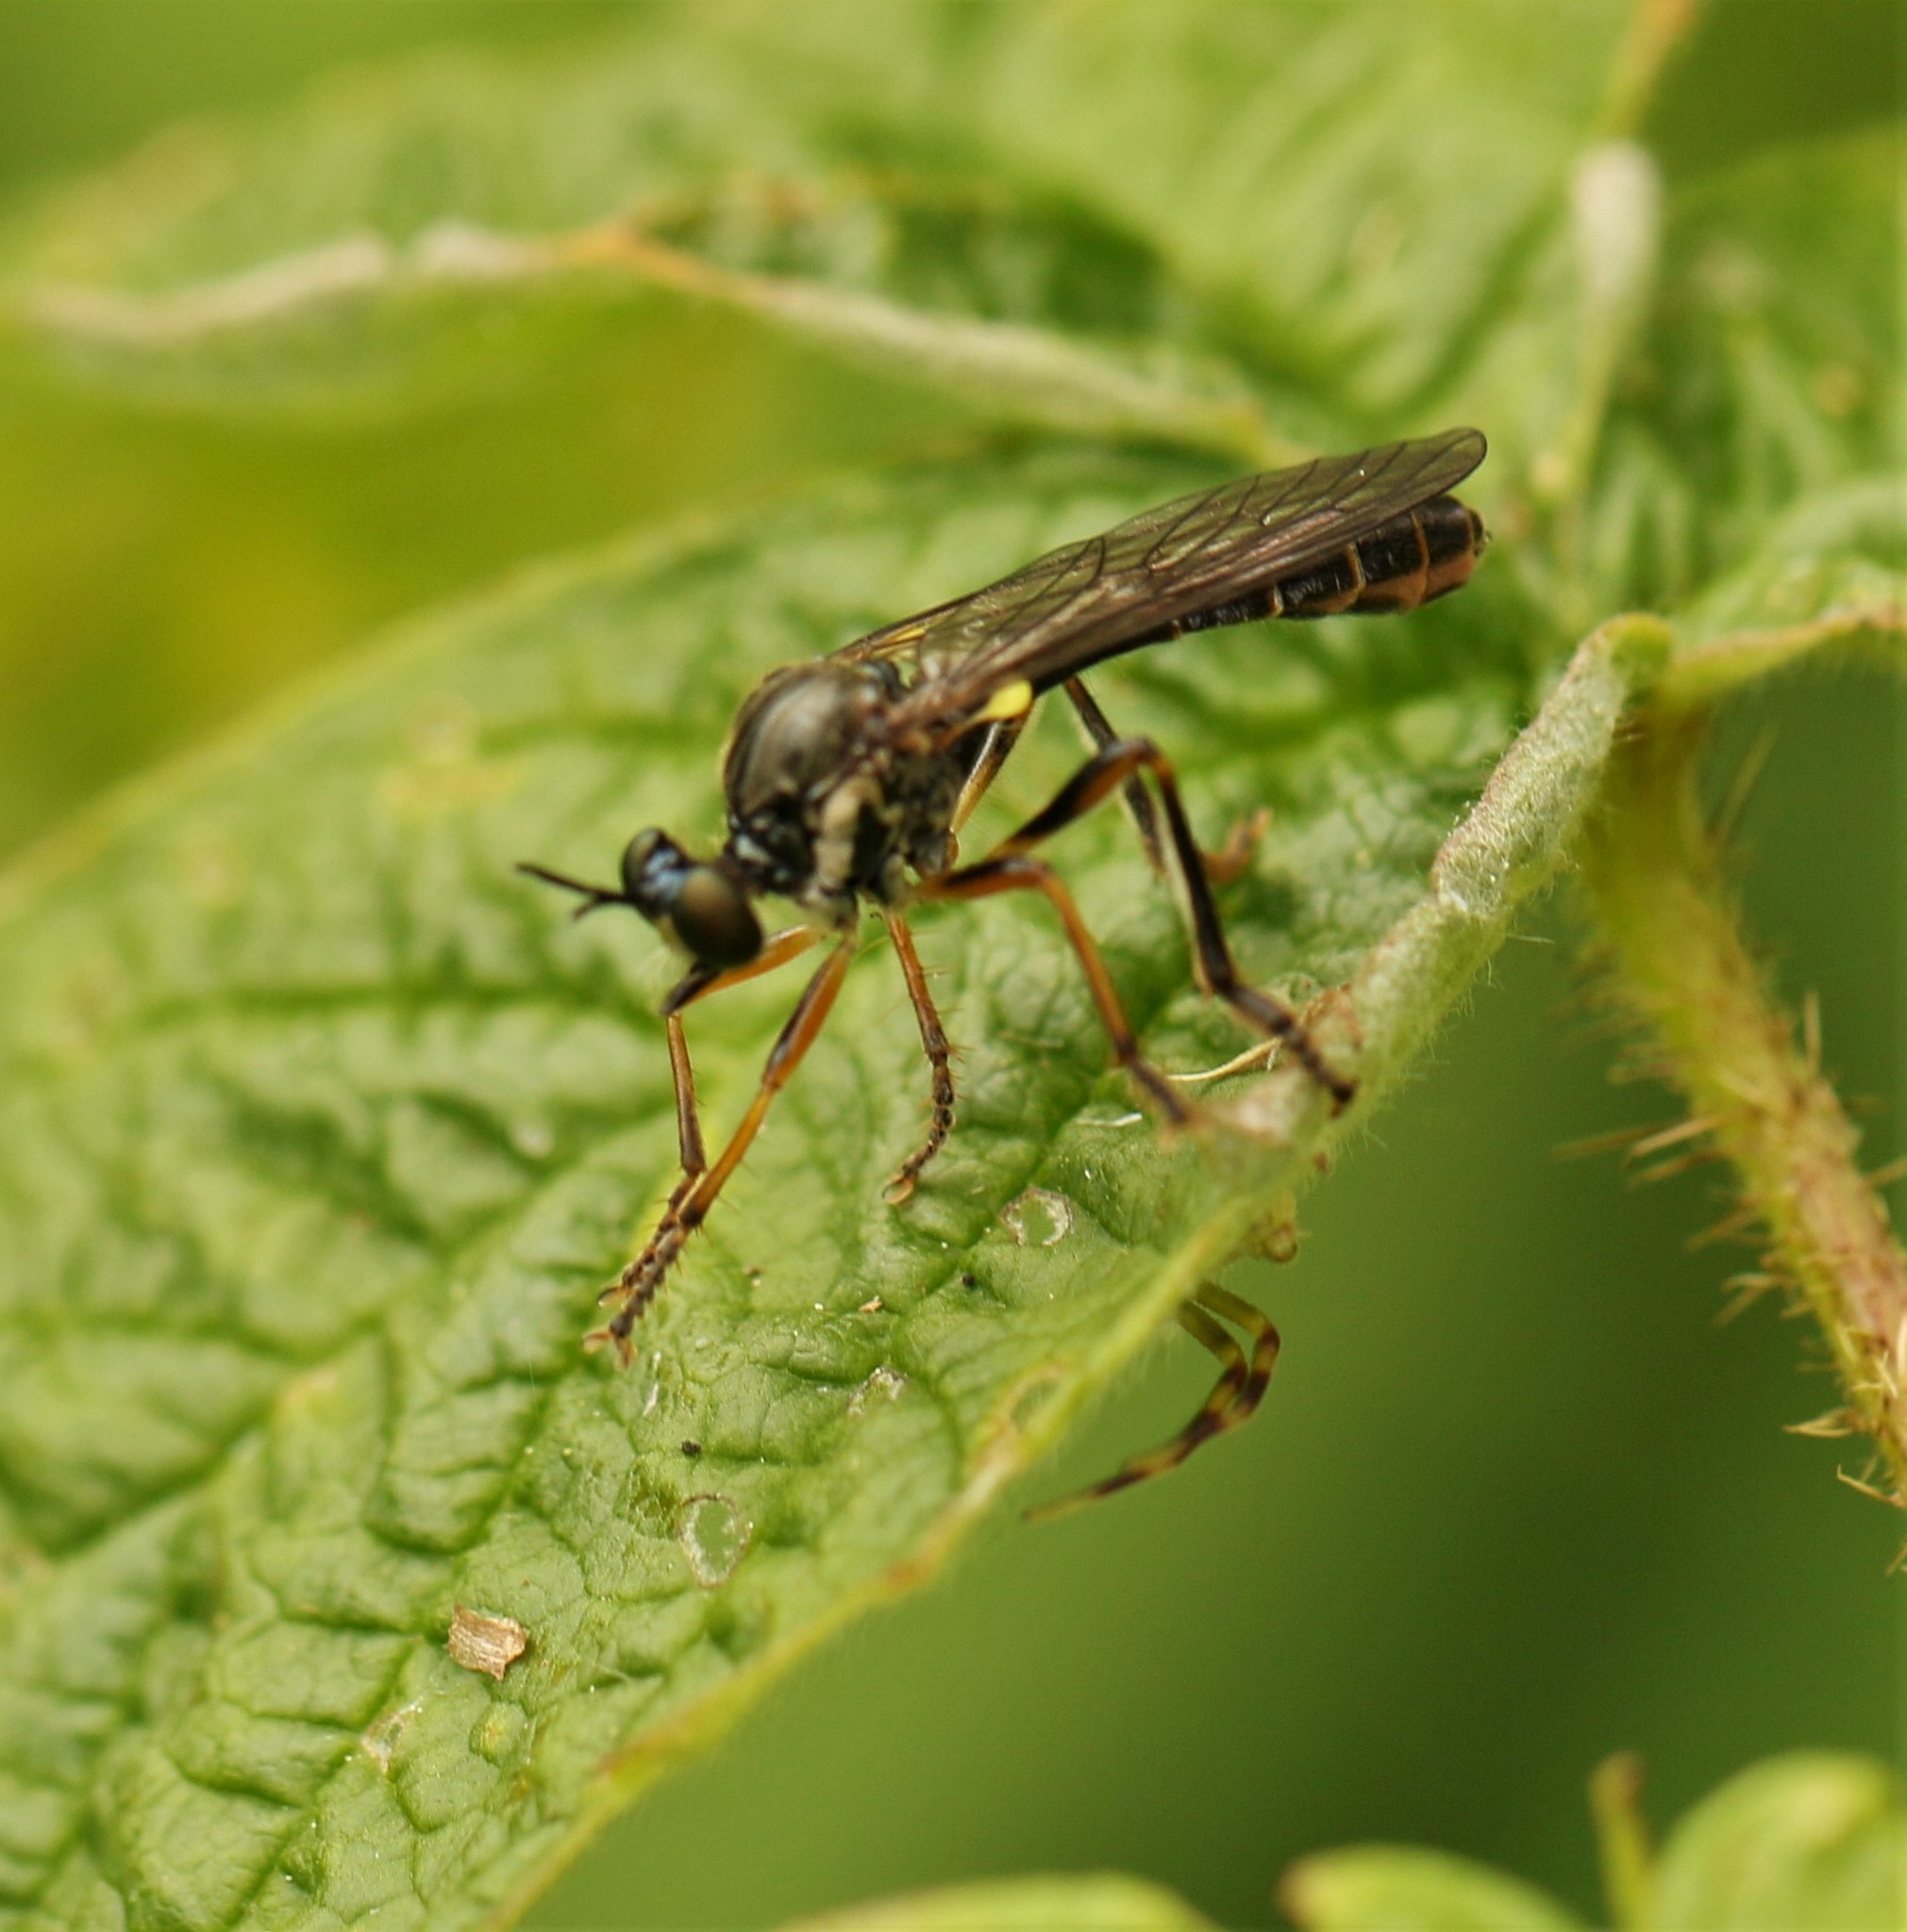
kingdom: Animalia
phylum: Arthropoda
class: Insecta
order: Diptera
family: Asilidae
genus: Dioctria
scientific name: Dioctria hyalipennis
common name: Stripe-legged robberfly
